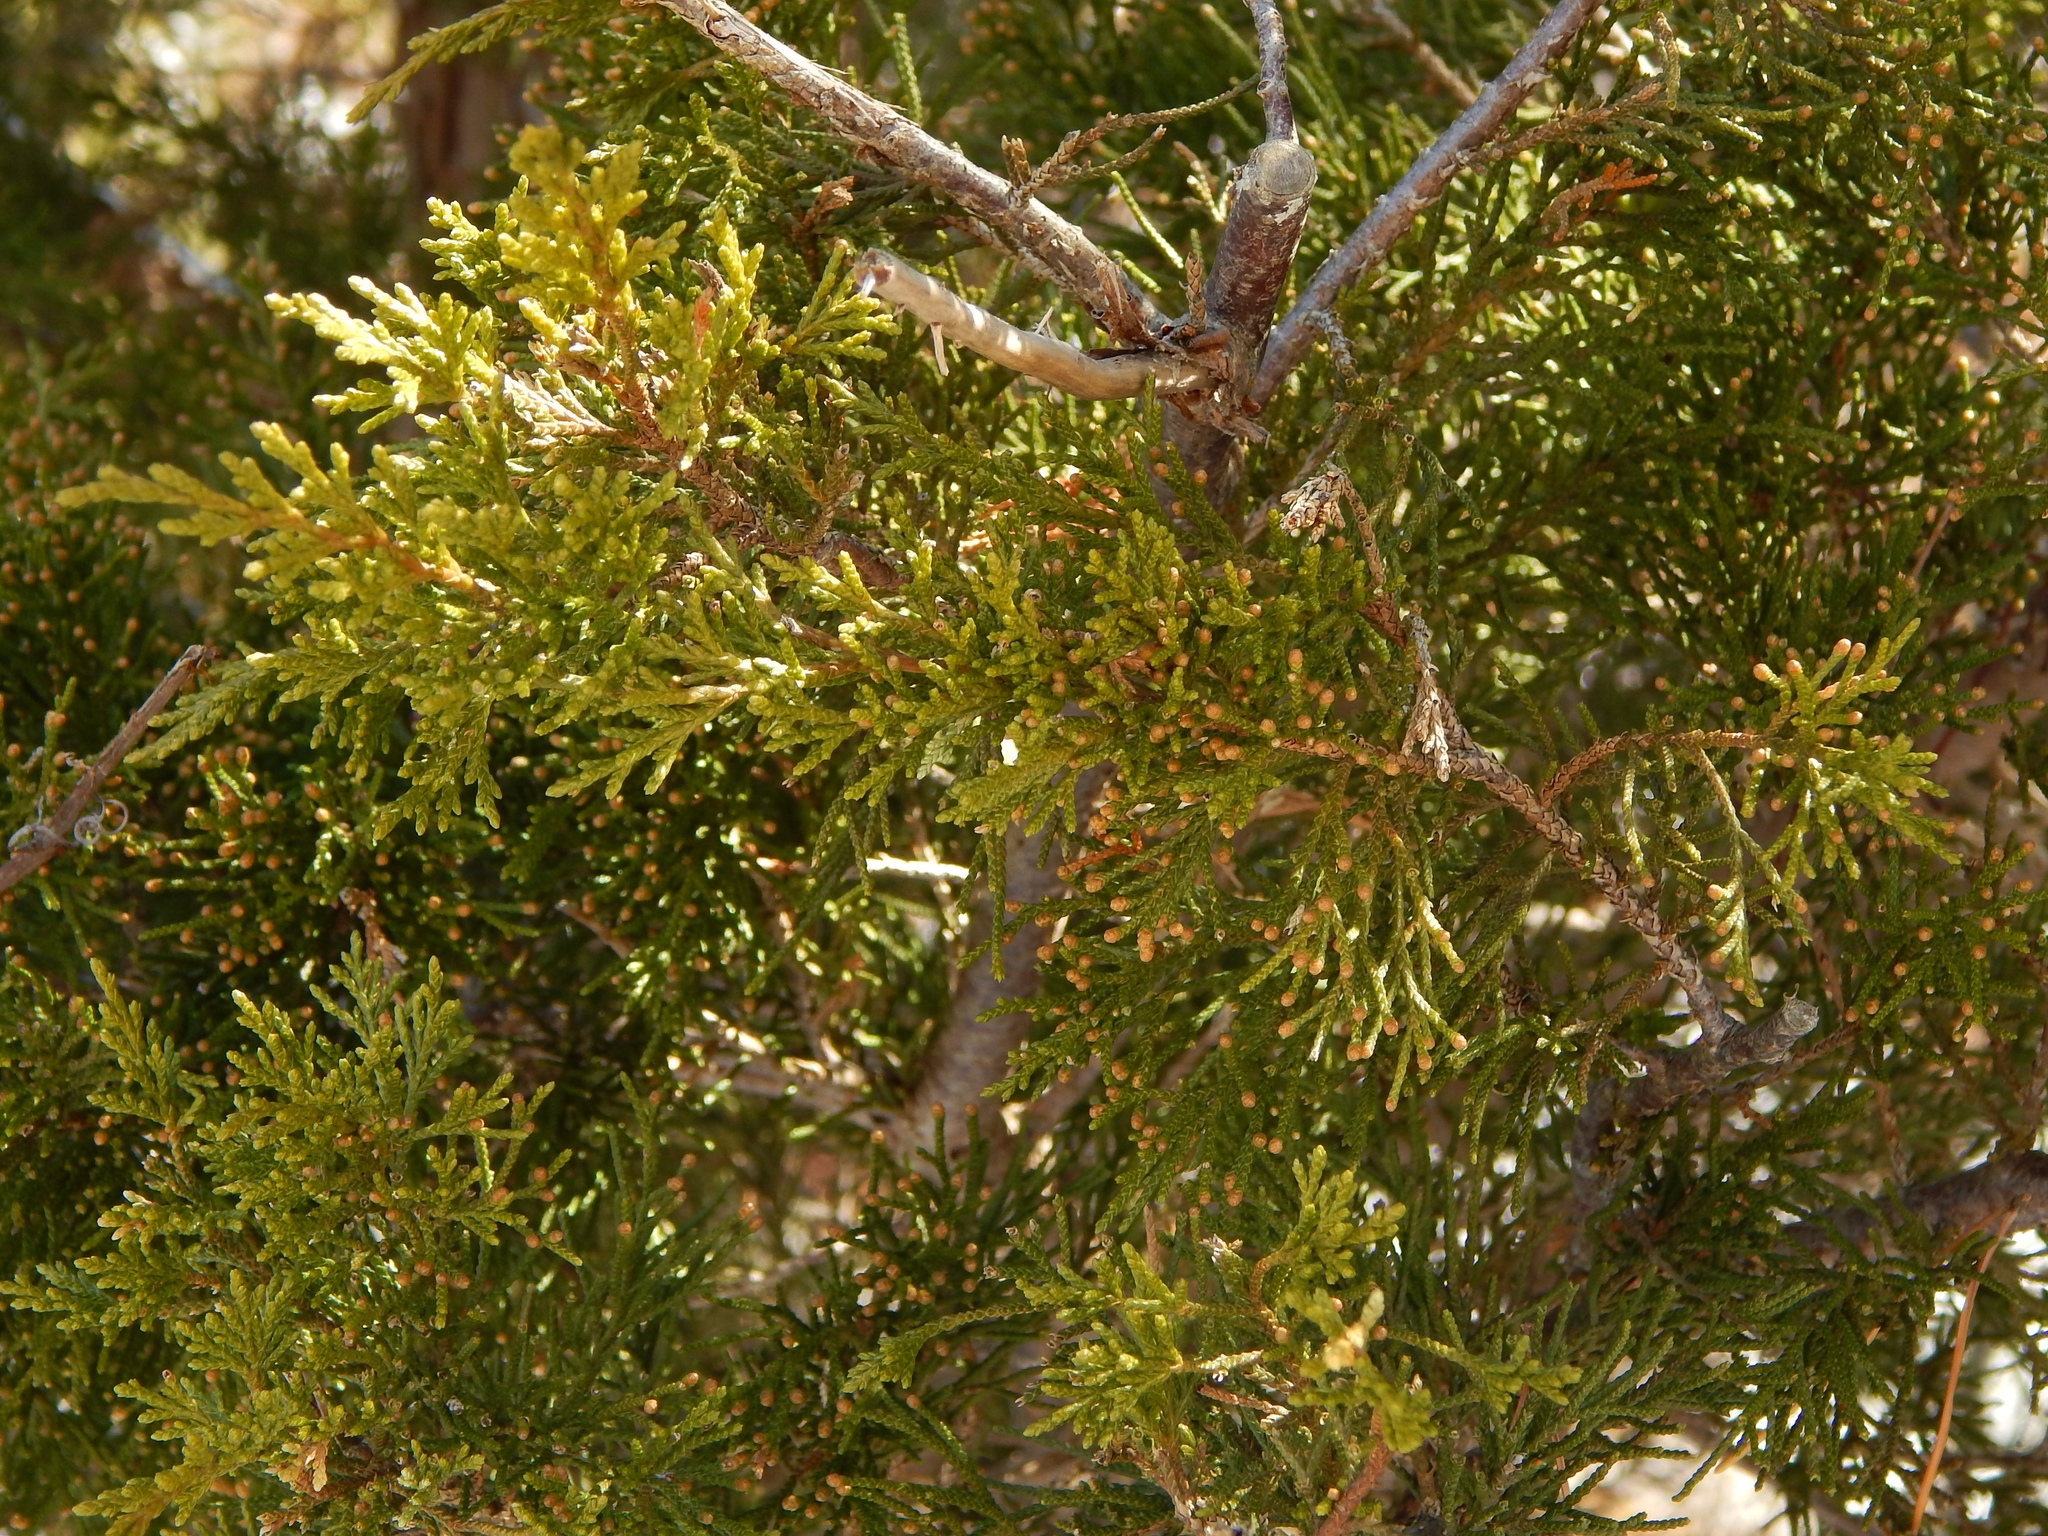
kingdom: Plantae
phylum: Tracheophyta
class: Pinopsida
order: Pinales
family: Cupressaceae
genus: Chamaecyparis
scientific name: Chamaecyparis thyoides
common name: Atlantic white cedar
